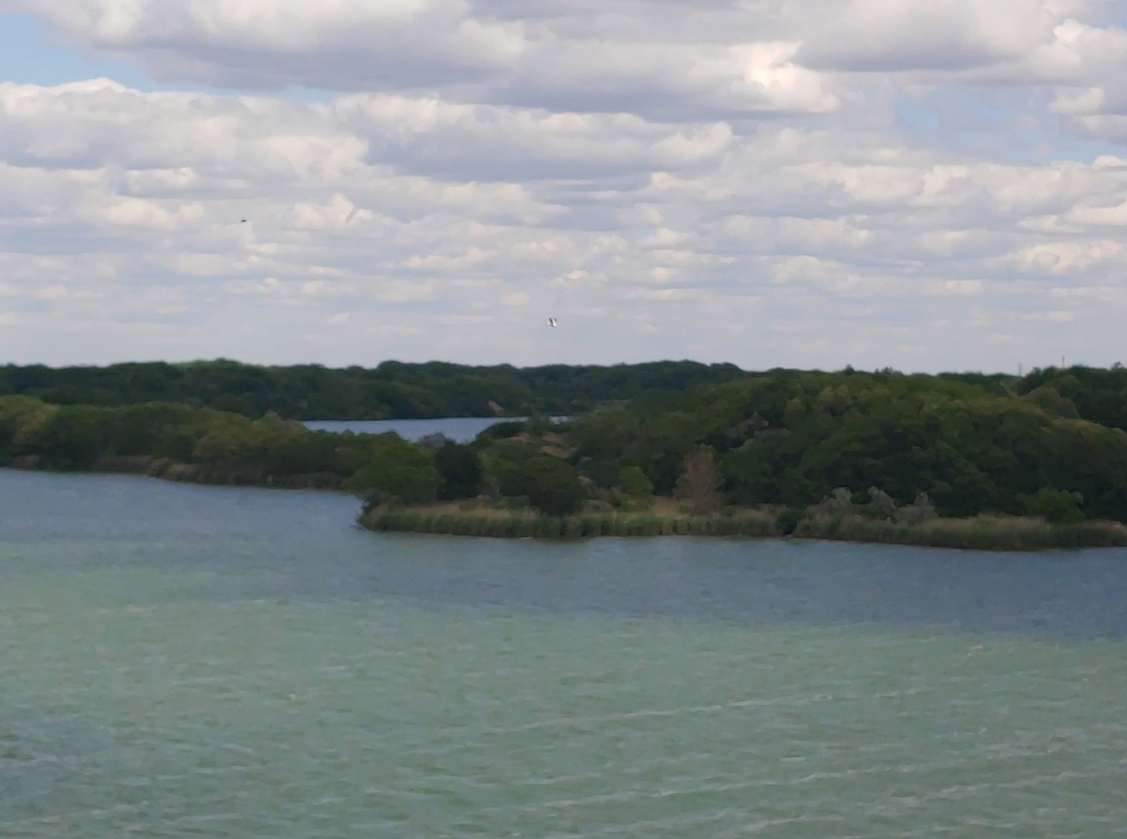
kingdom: Animalia
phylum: Chordata
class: Aves
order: Pelecaniformes
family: Pelecanidae
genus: Pelecanus
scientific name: Pelecanus erythrorhynchos
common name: American white pelican
